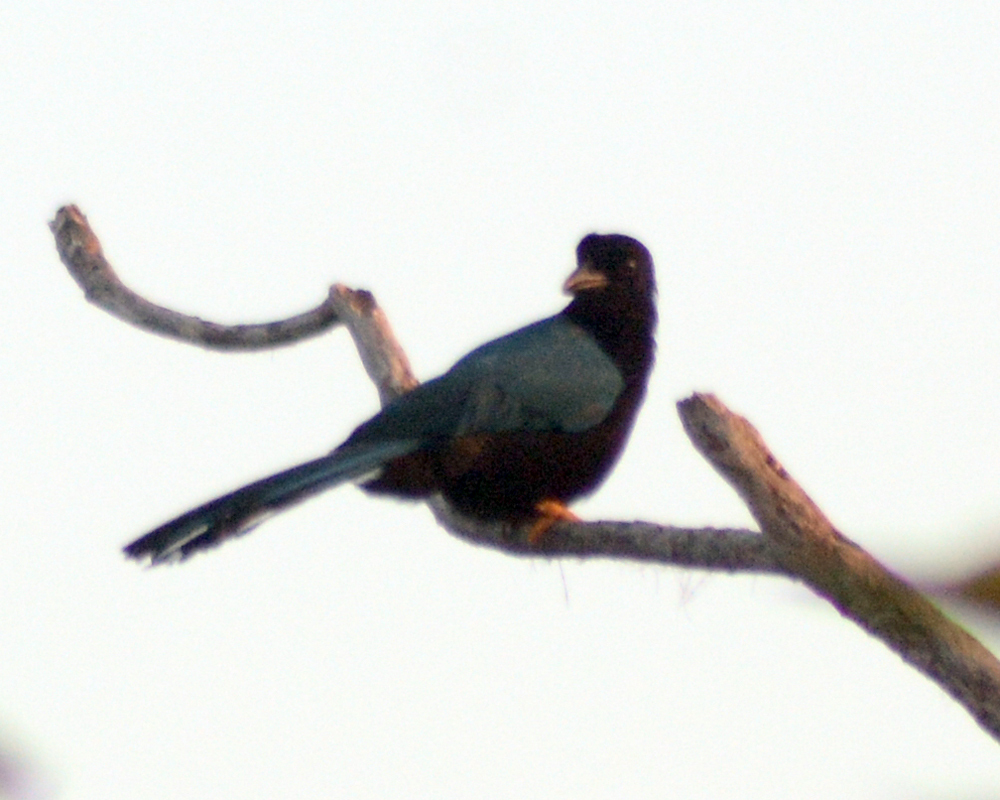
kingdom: Animalia
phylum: Chordata
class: Aves
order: Passeriformes
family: Corvidae
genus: Cyanocorax
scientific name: Cyanocorax yucatanicus
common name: Yucatan jay
